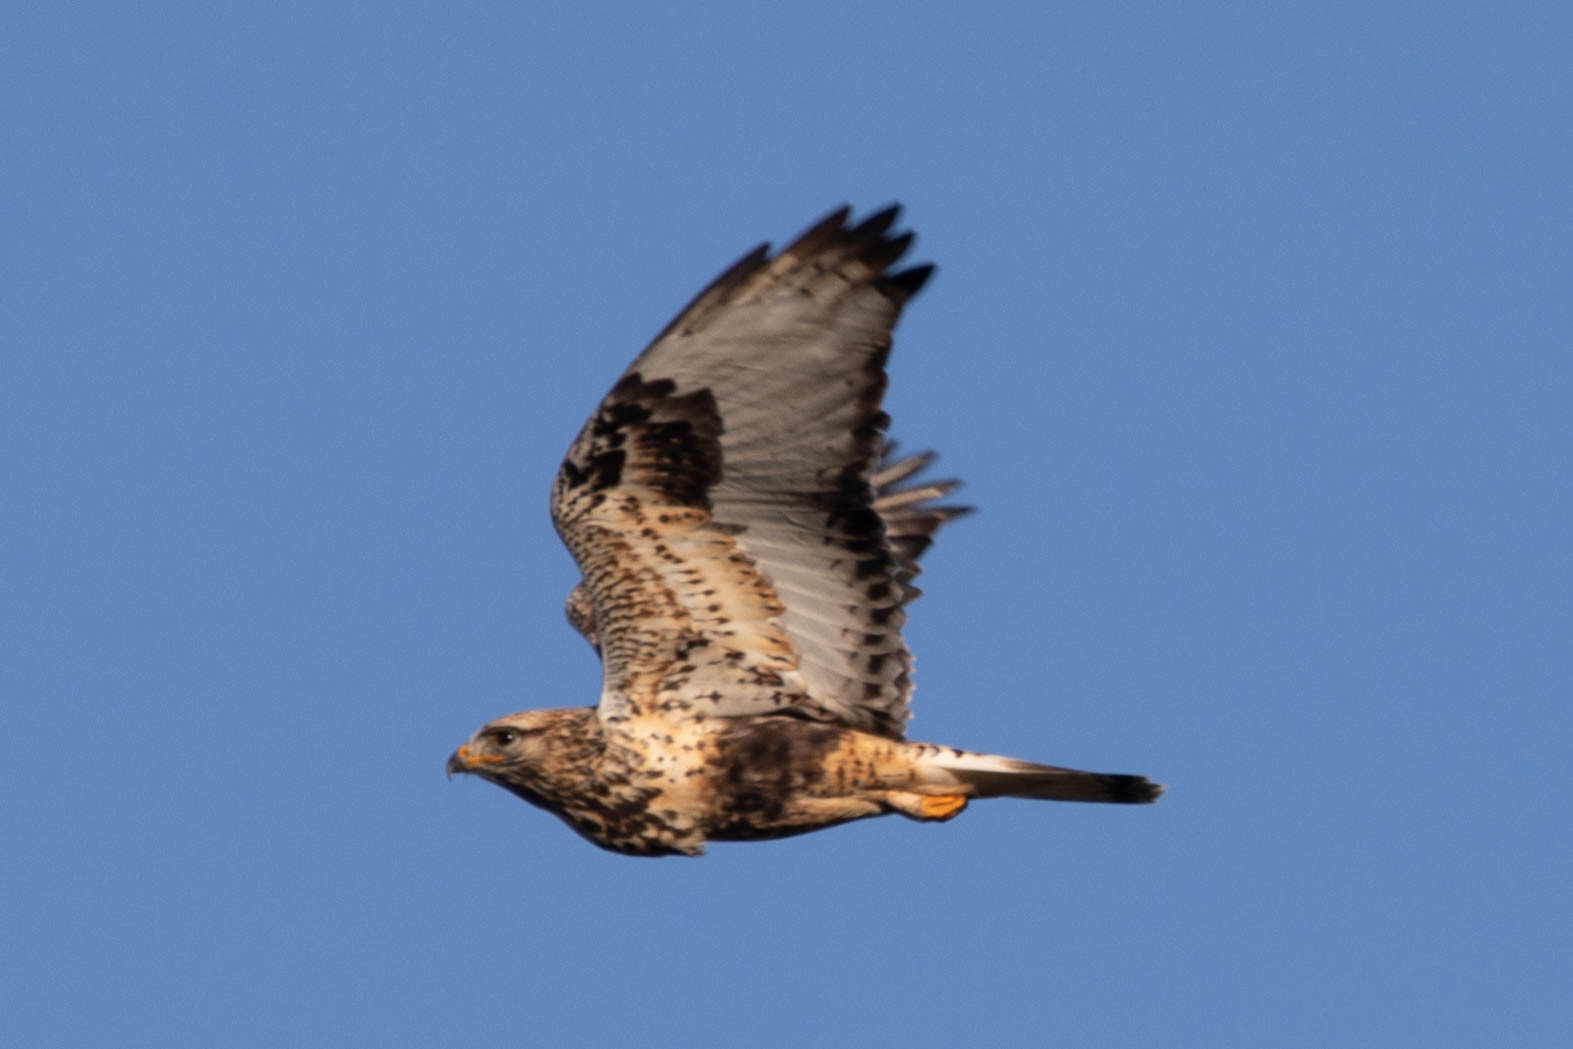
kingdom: Animalia
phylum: Chordata
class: Aves
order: Accipitriformes
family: Accipitridae
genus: Buteo
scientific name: Buteo lagopus
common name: Rough-legged buzzard
